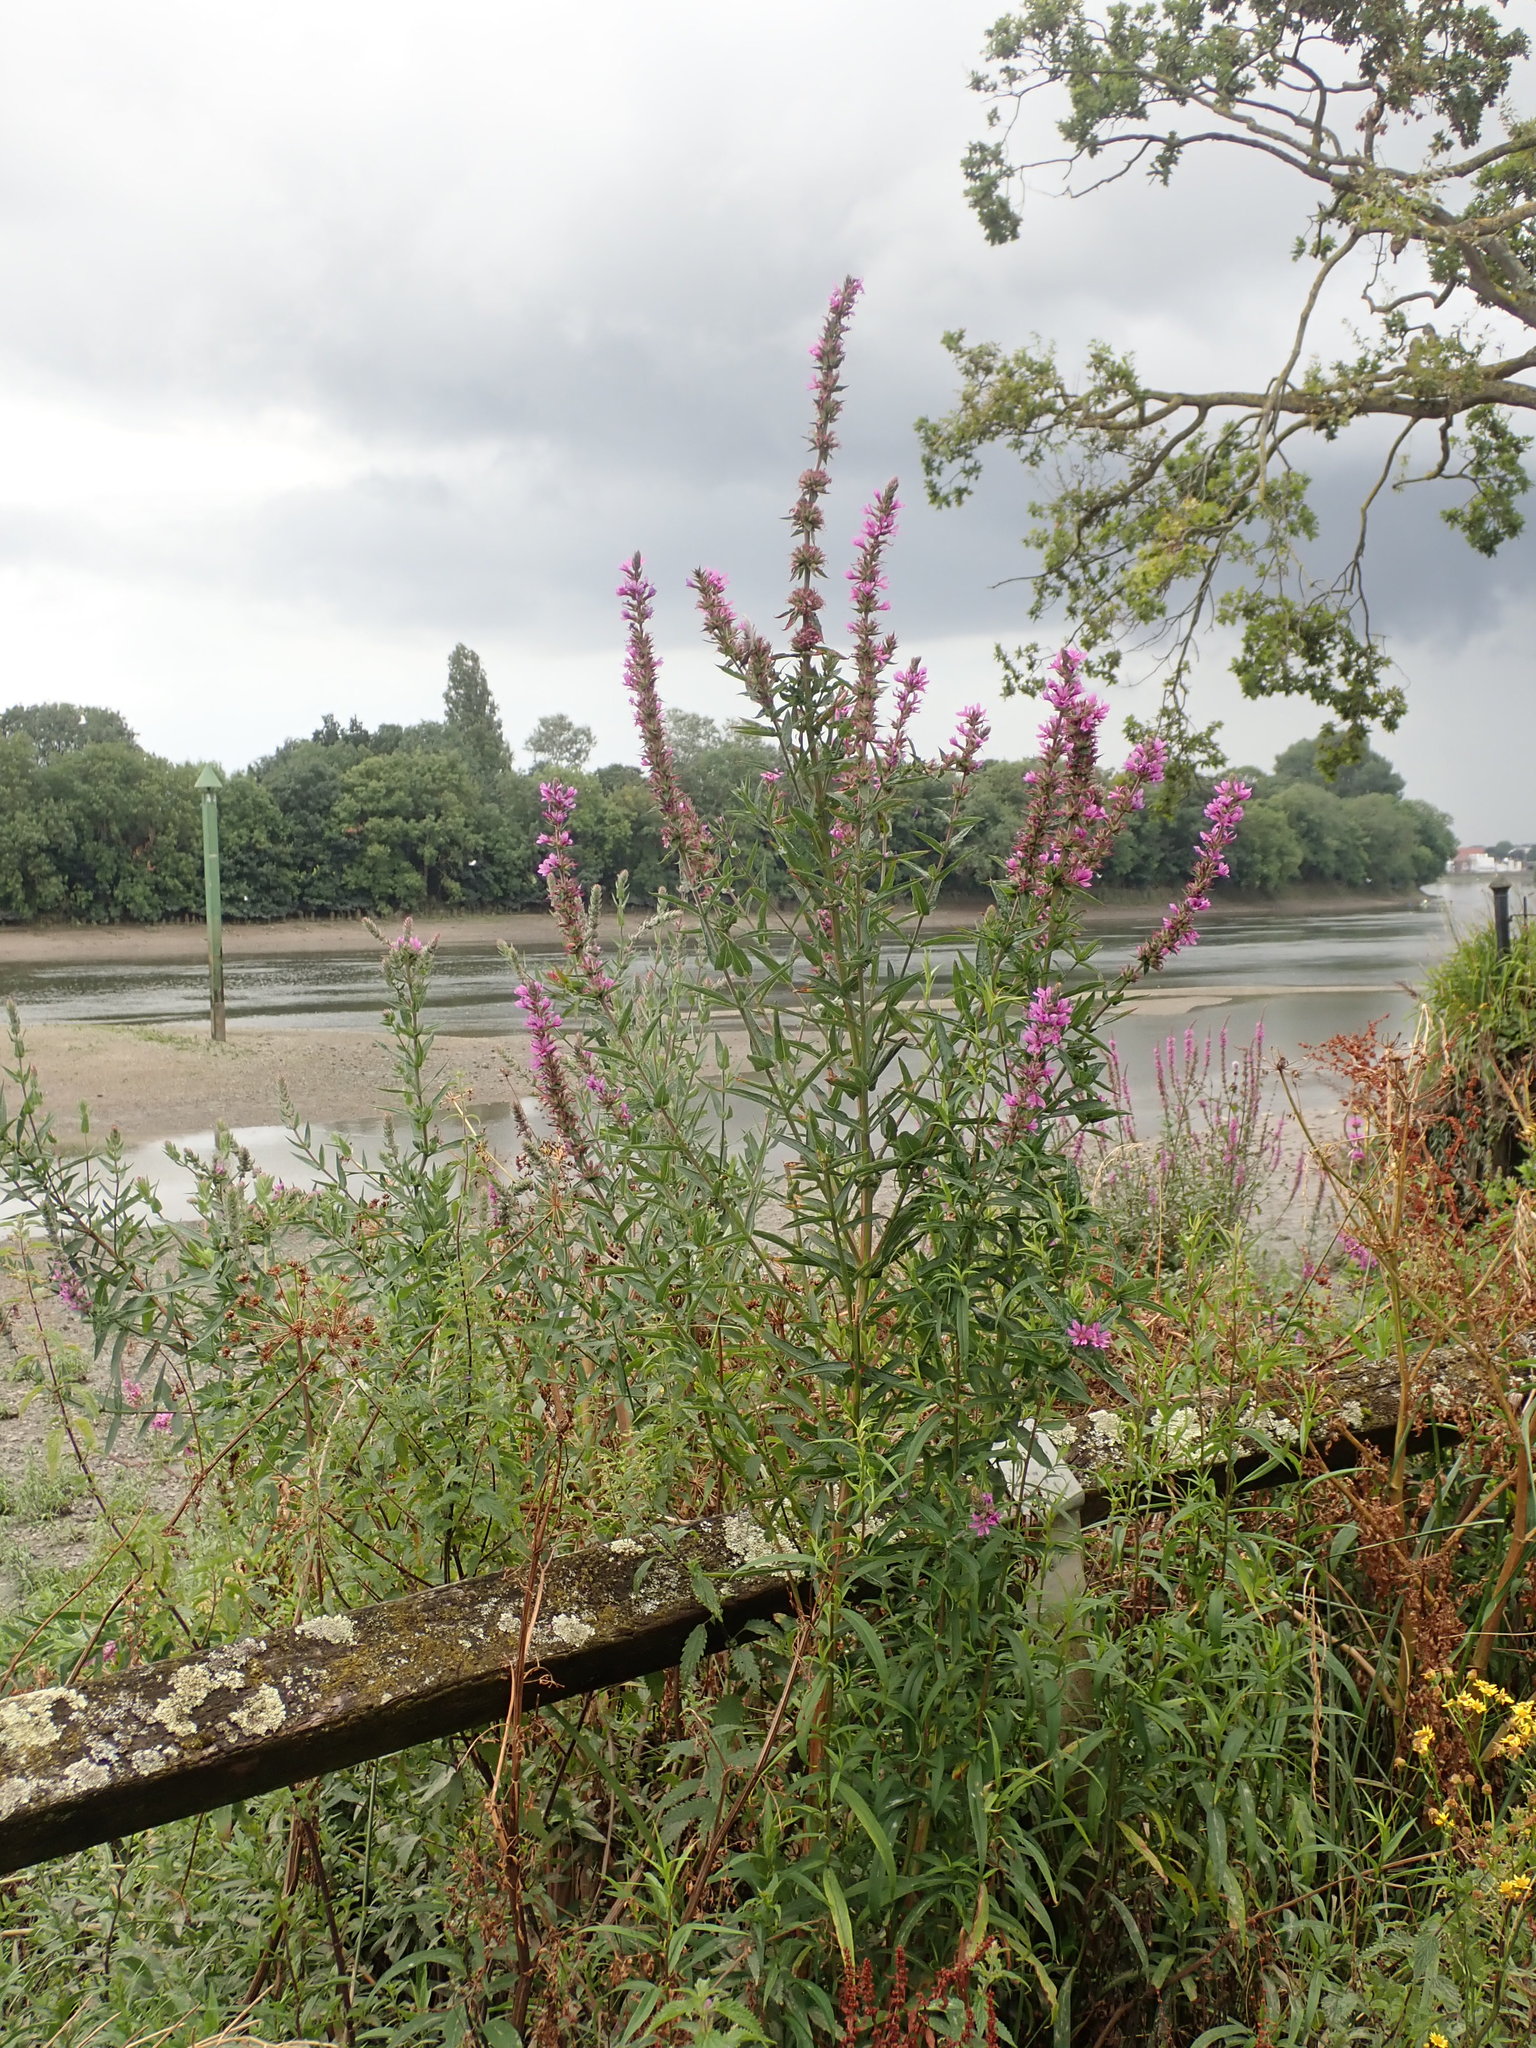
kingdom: Plantae
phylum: Tracheophyta
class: Magnoliopsida
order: Myrtales
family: Lythraceae
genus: Lythrum
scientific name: Lythrum salicaria
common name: Purple loosestrife
